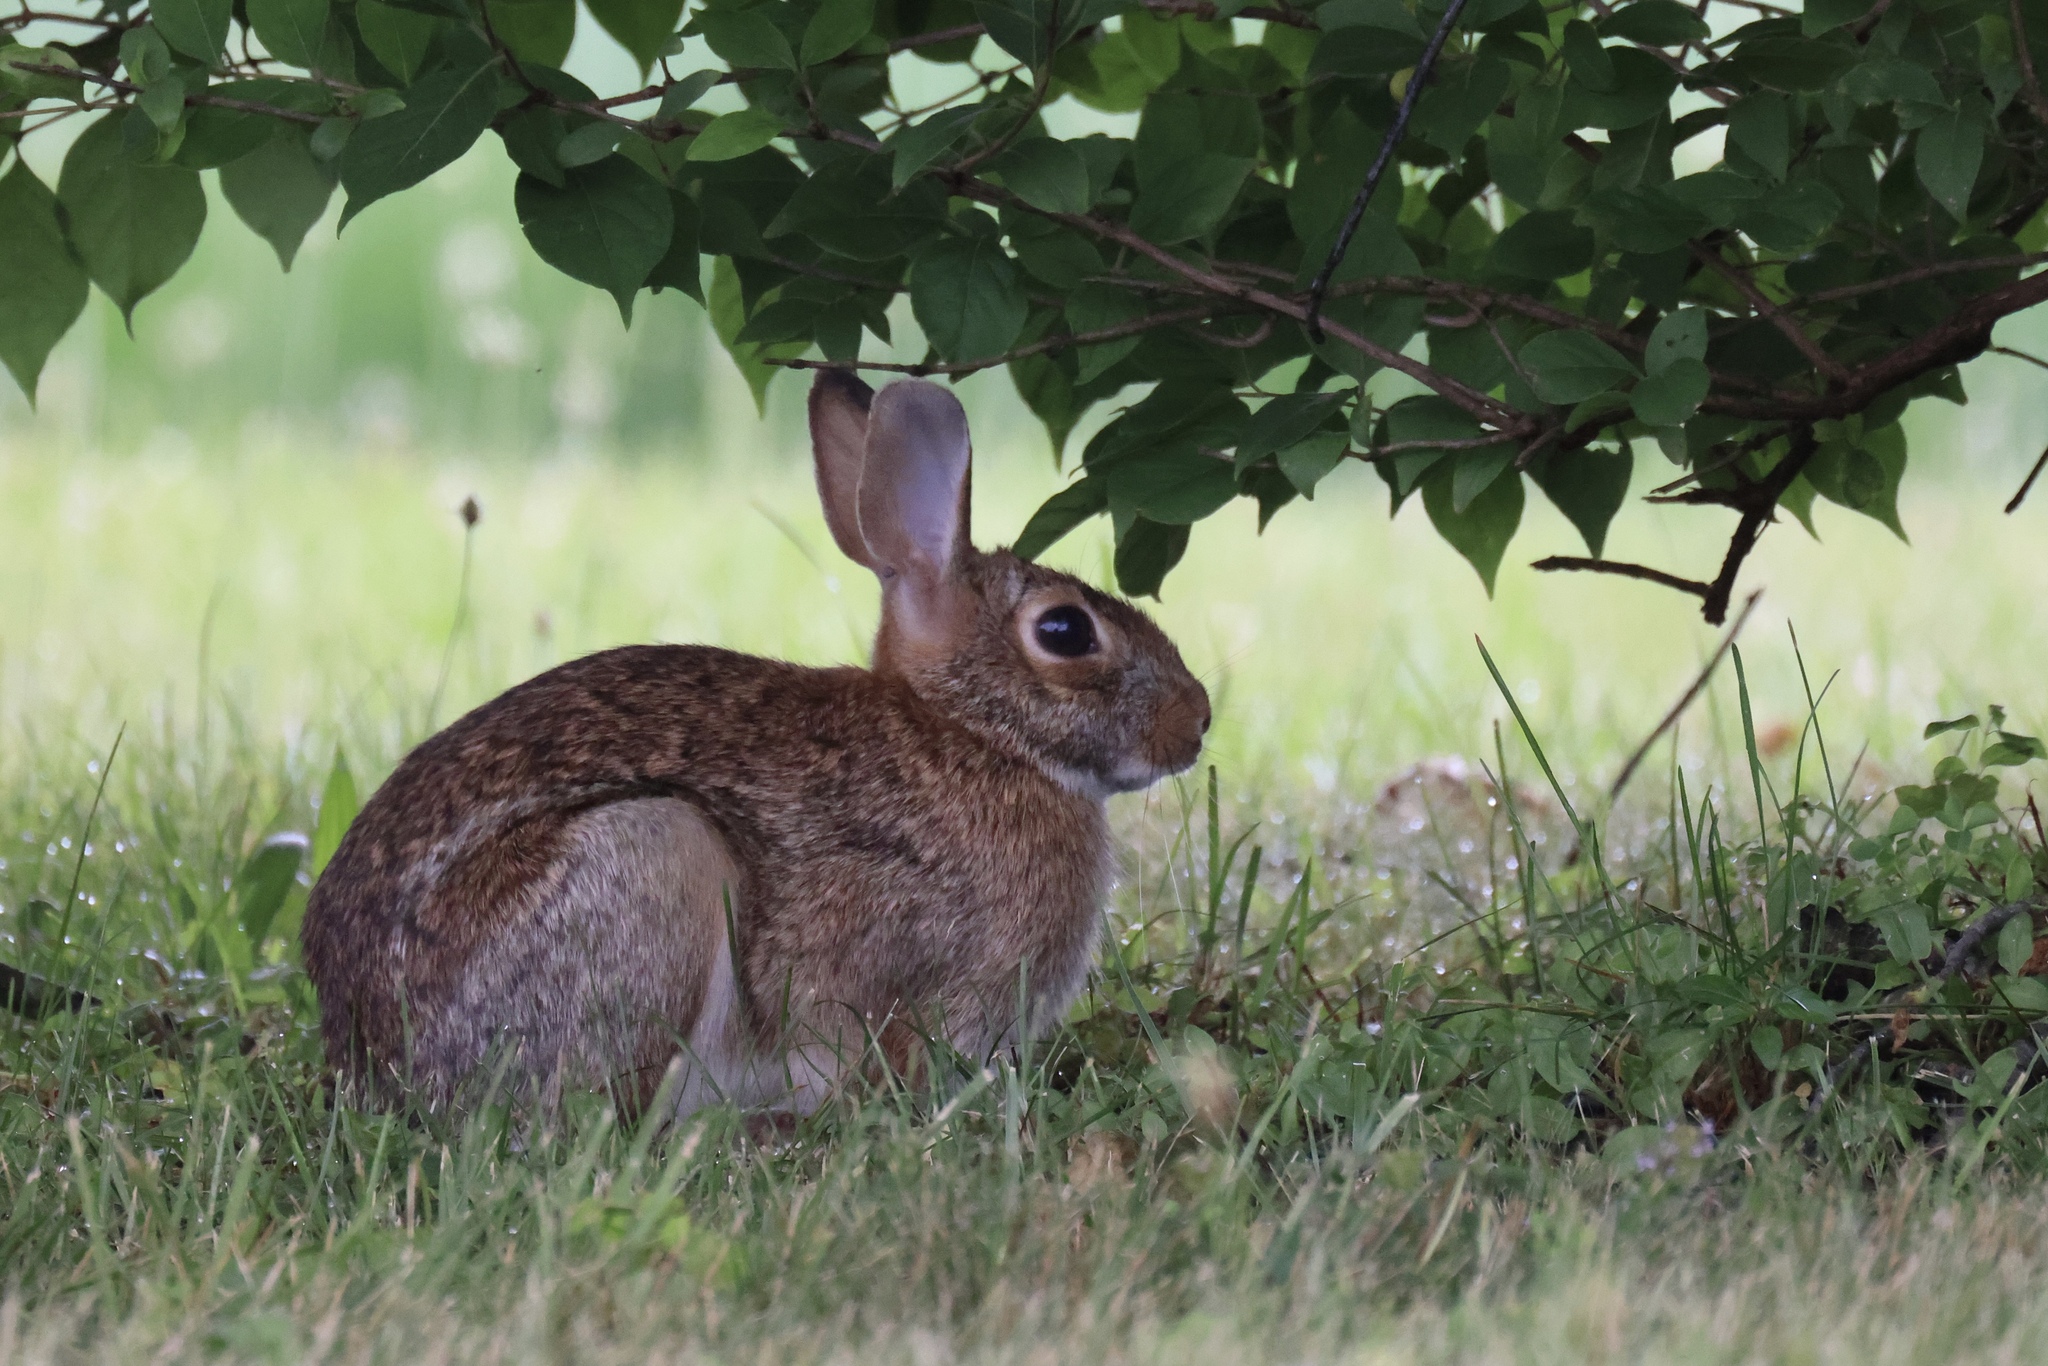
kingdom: Animalia
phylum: Chordata
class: Mammalia
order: Lagomorpha
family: Leporidae
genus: Sylvilagus
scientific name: Sylvilagus floridanus
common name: Eastern cottontail
